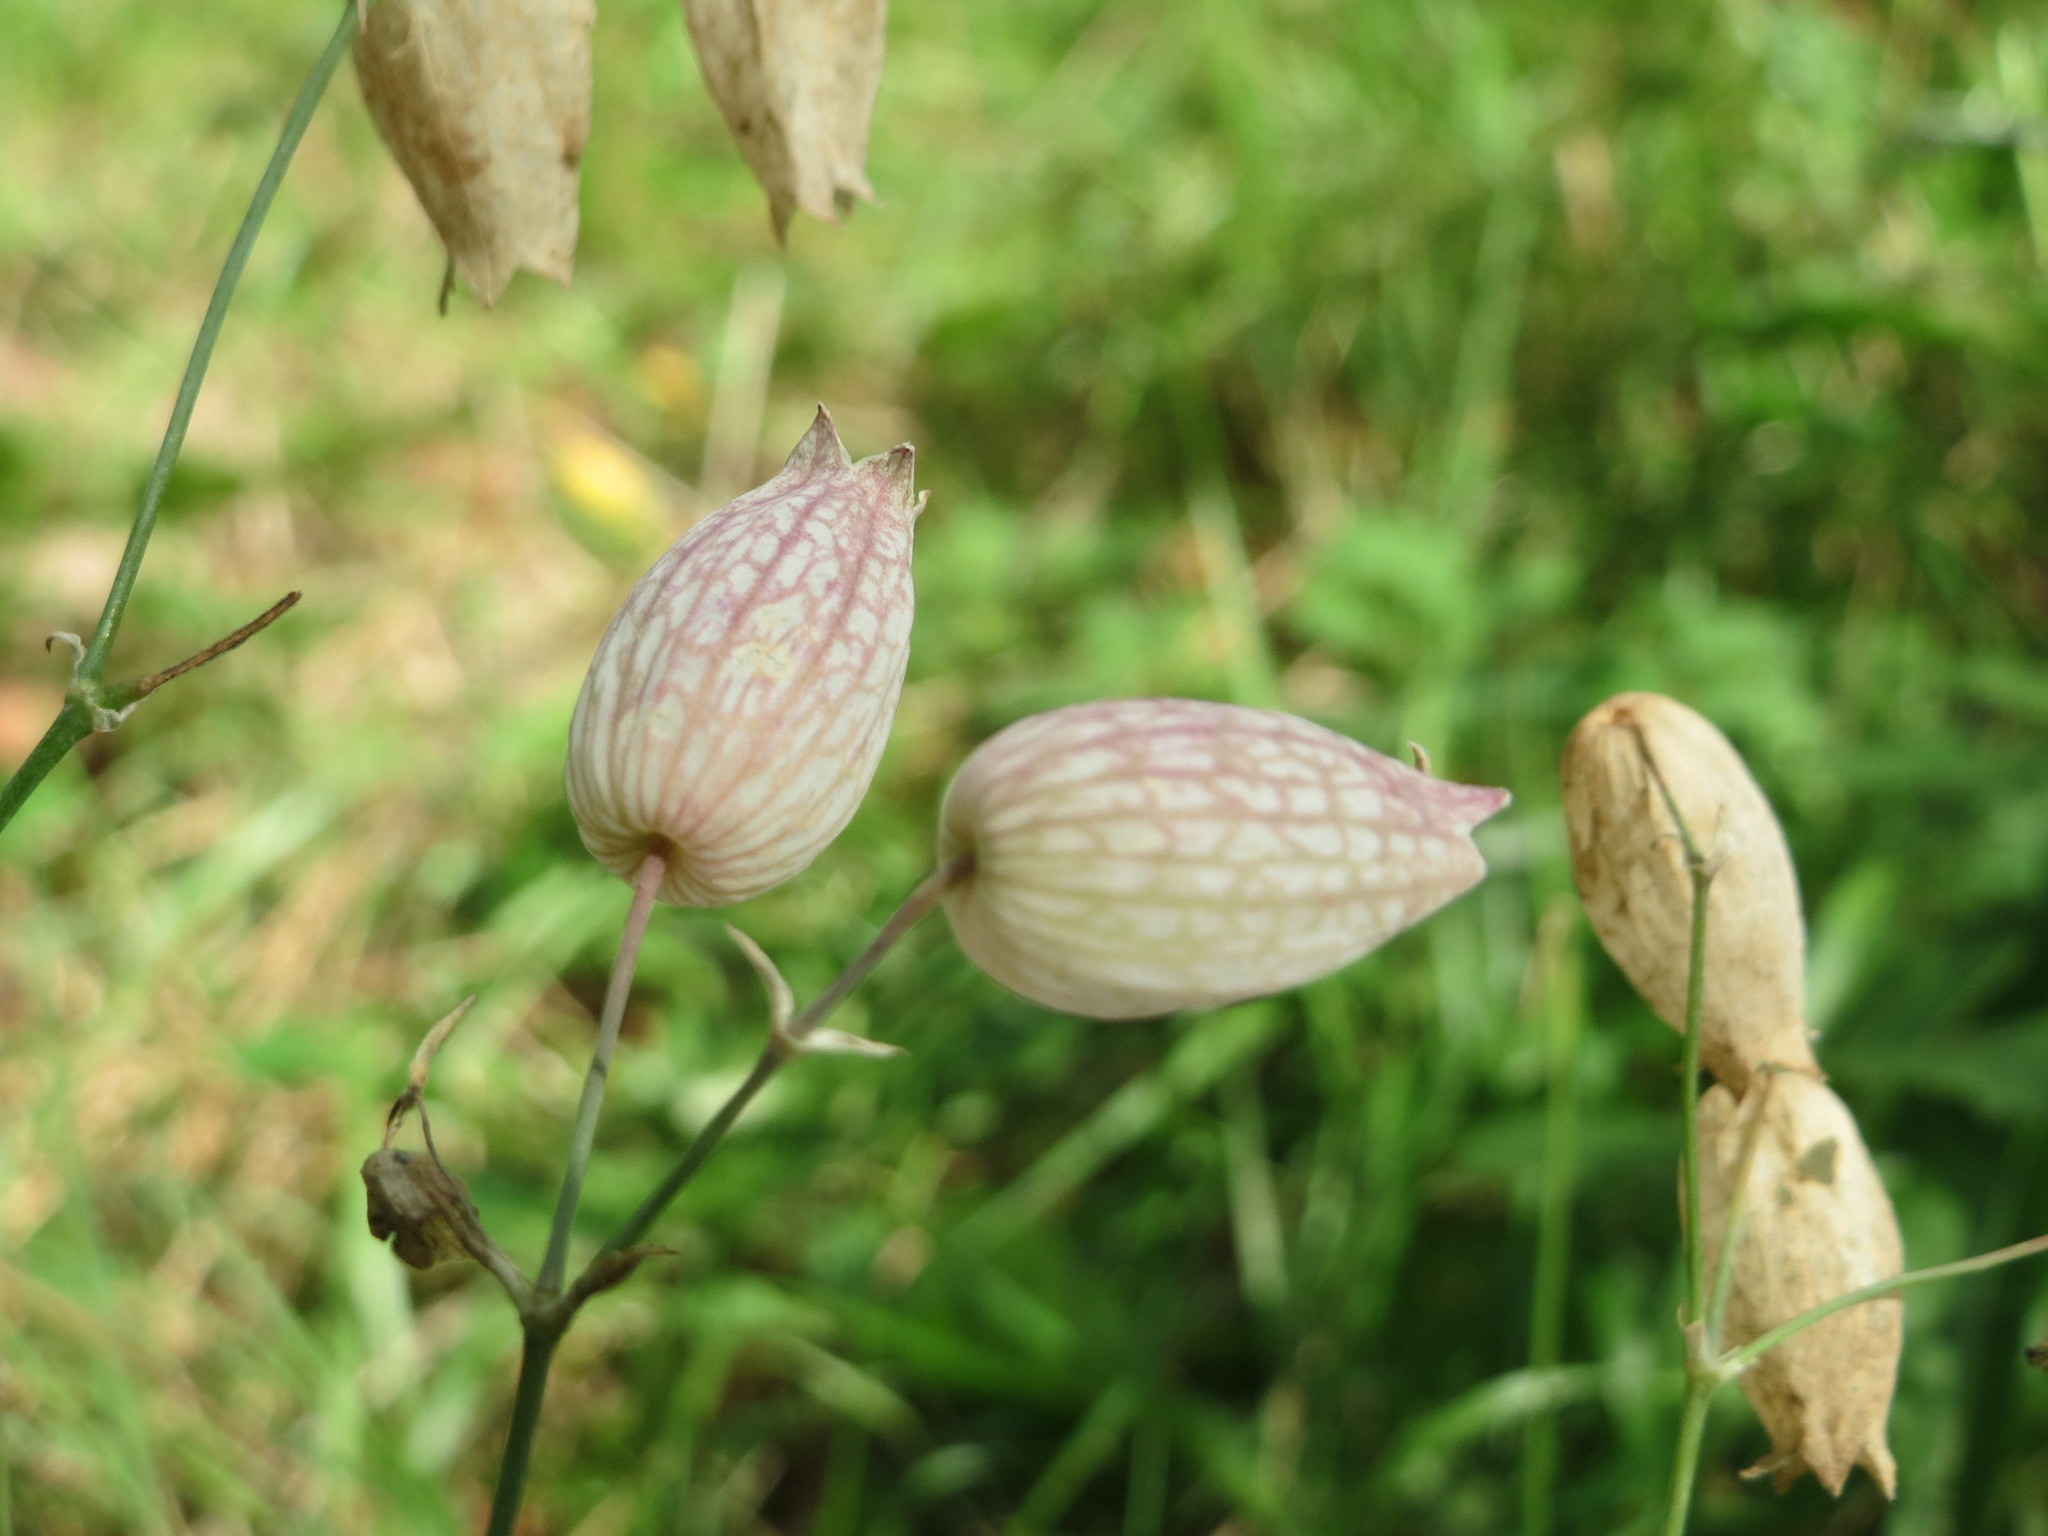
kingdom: Plantae
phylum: Tracheophyta
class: Magnoliopsida
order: Caryophyllales
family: Caryophyllaceae
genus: Silene
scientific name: Silene vulgaris
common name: Bladder campion
